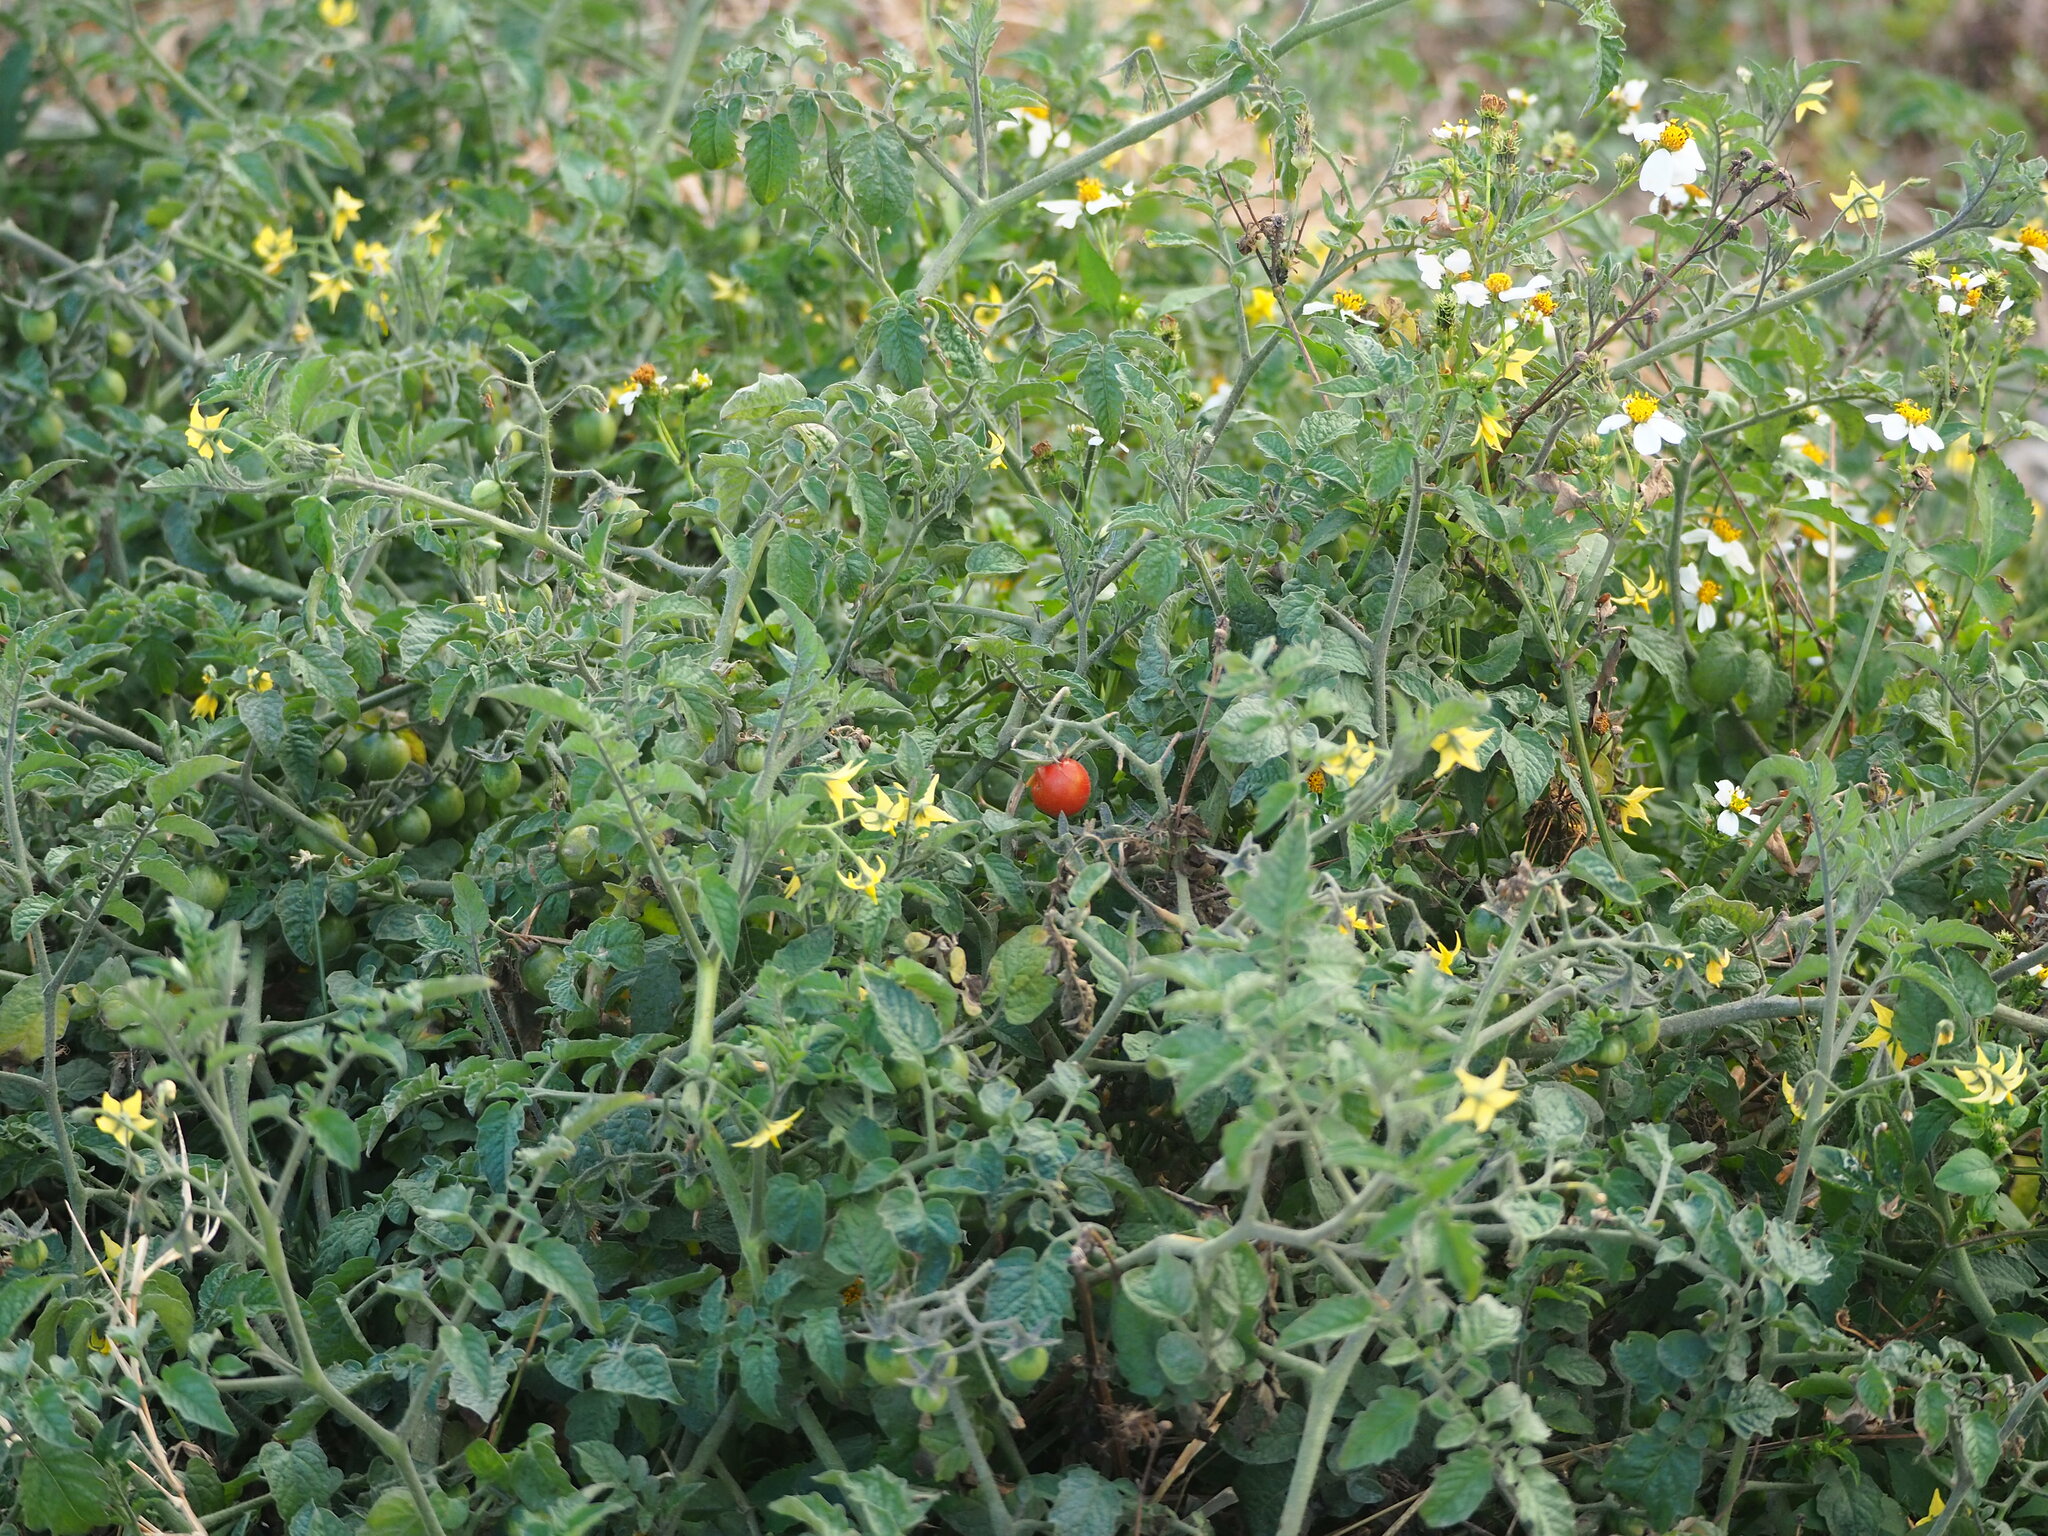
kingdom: Plantae
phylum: Tracheophyta
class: Magnoliopsida
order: Solanales
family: Solanaceae
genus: Solanum
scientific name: Solanum lycopersicum
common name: Garden tomato
